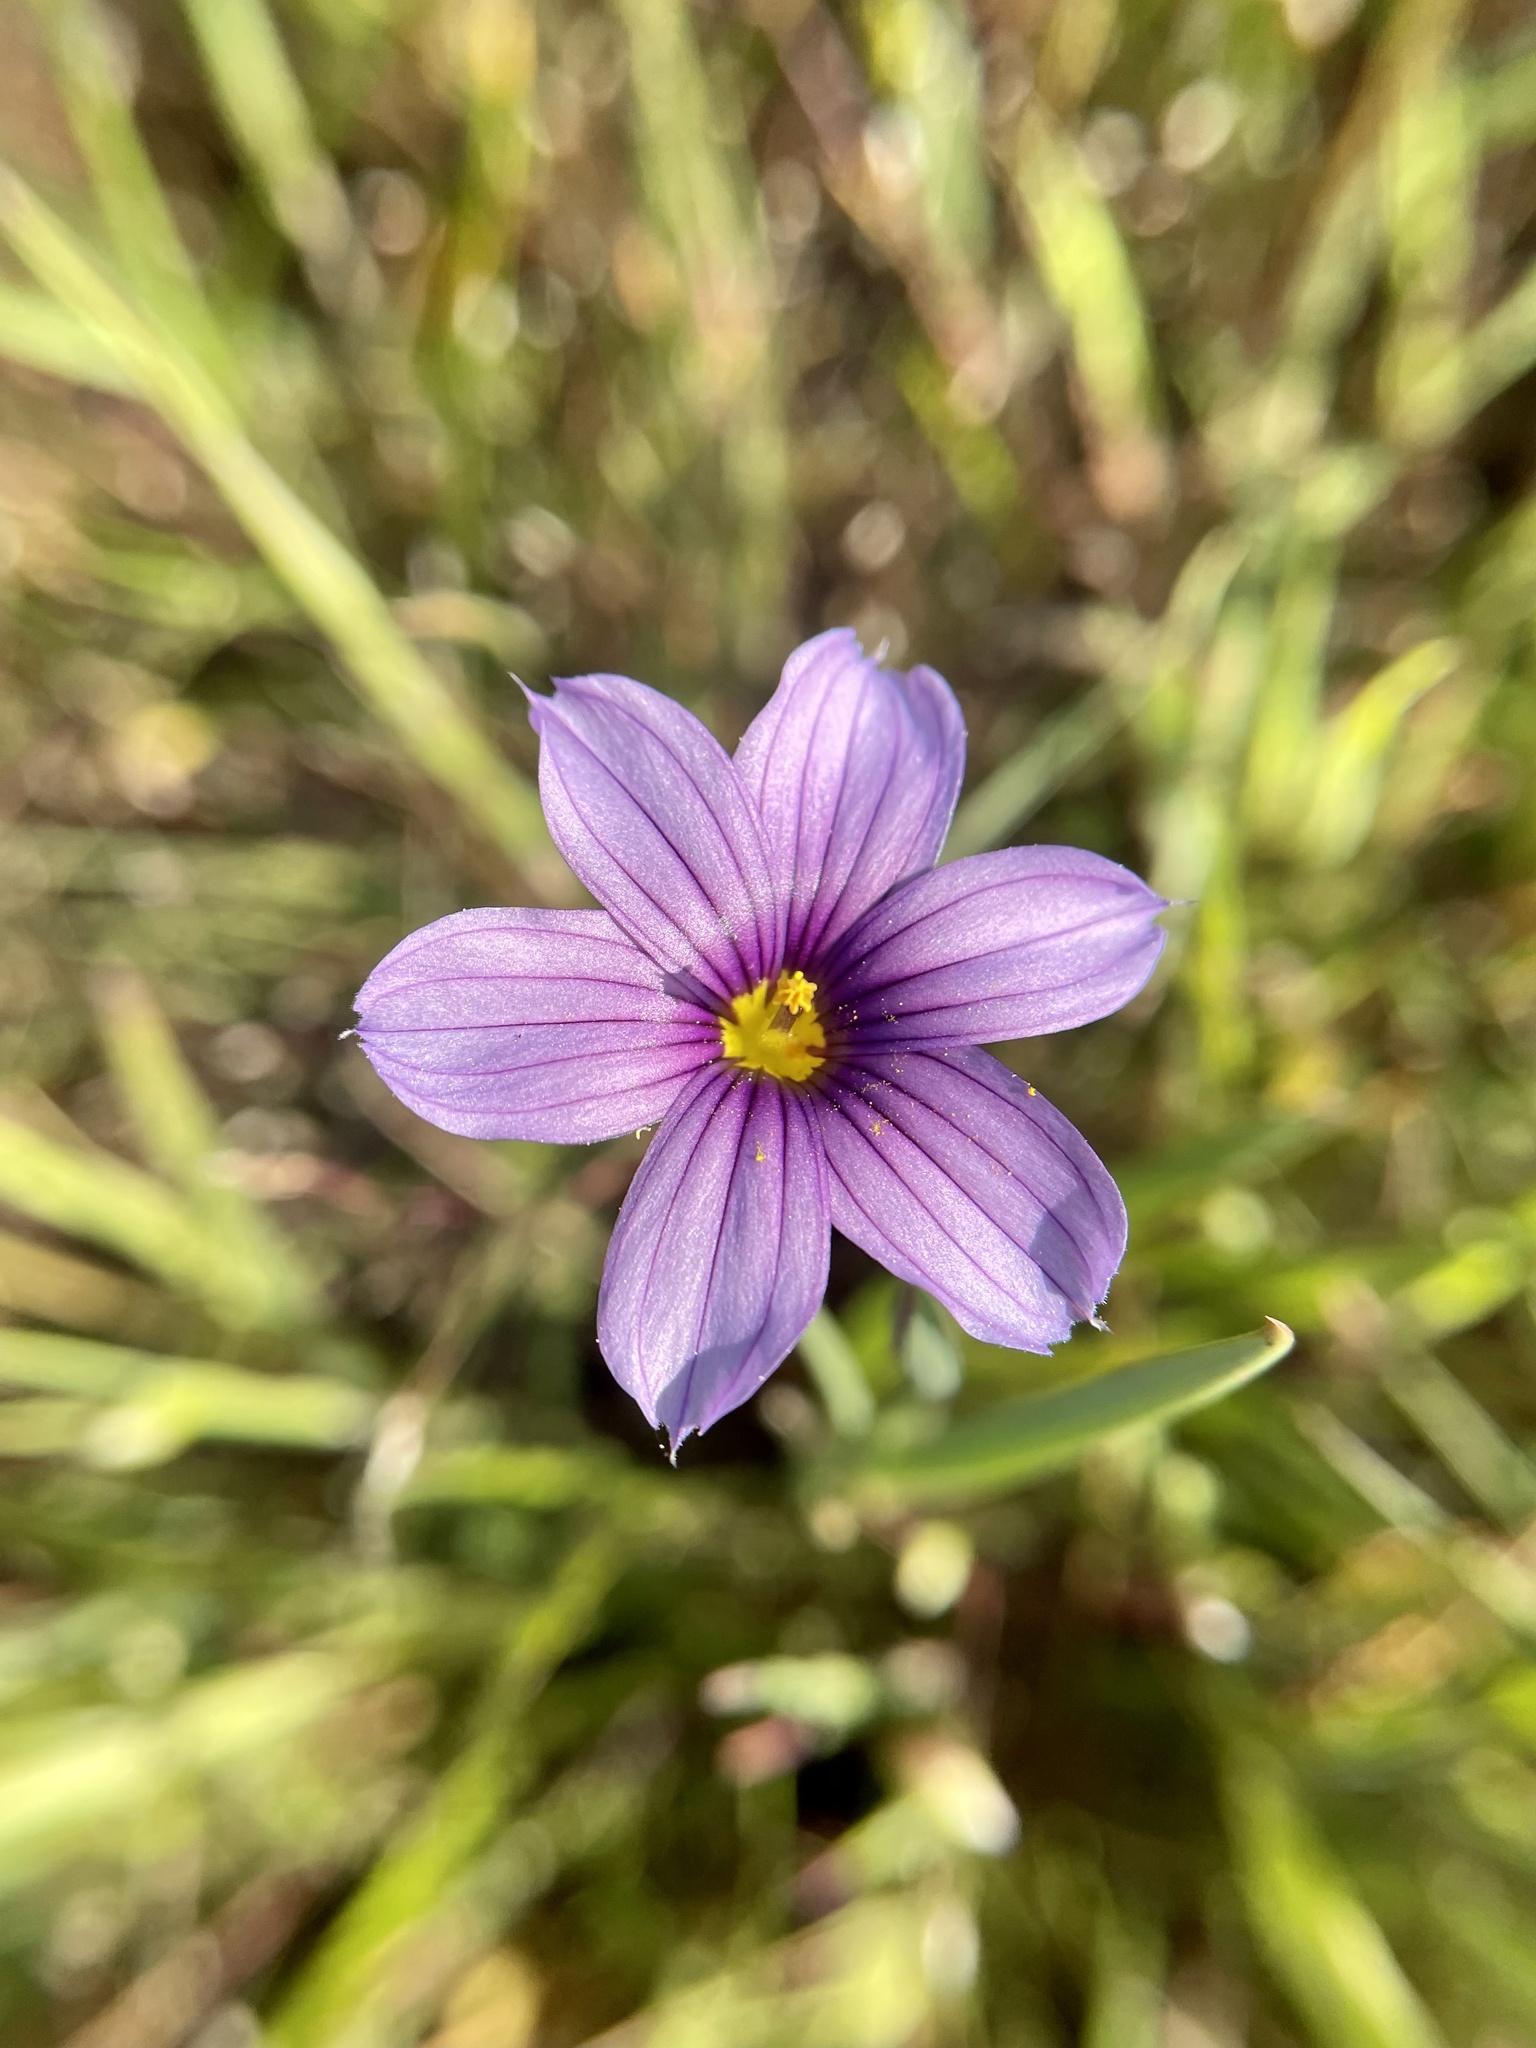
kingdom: Plantae
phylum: Tracheophyta
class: Liliopsida
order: Asparagales
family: Iridaceae
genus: Sisyrinchium
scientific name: Sisyrinchium bellum
